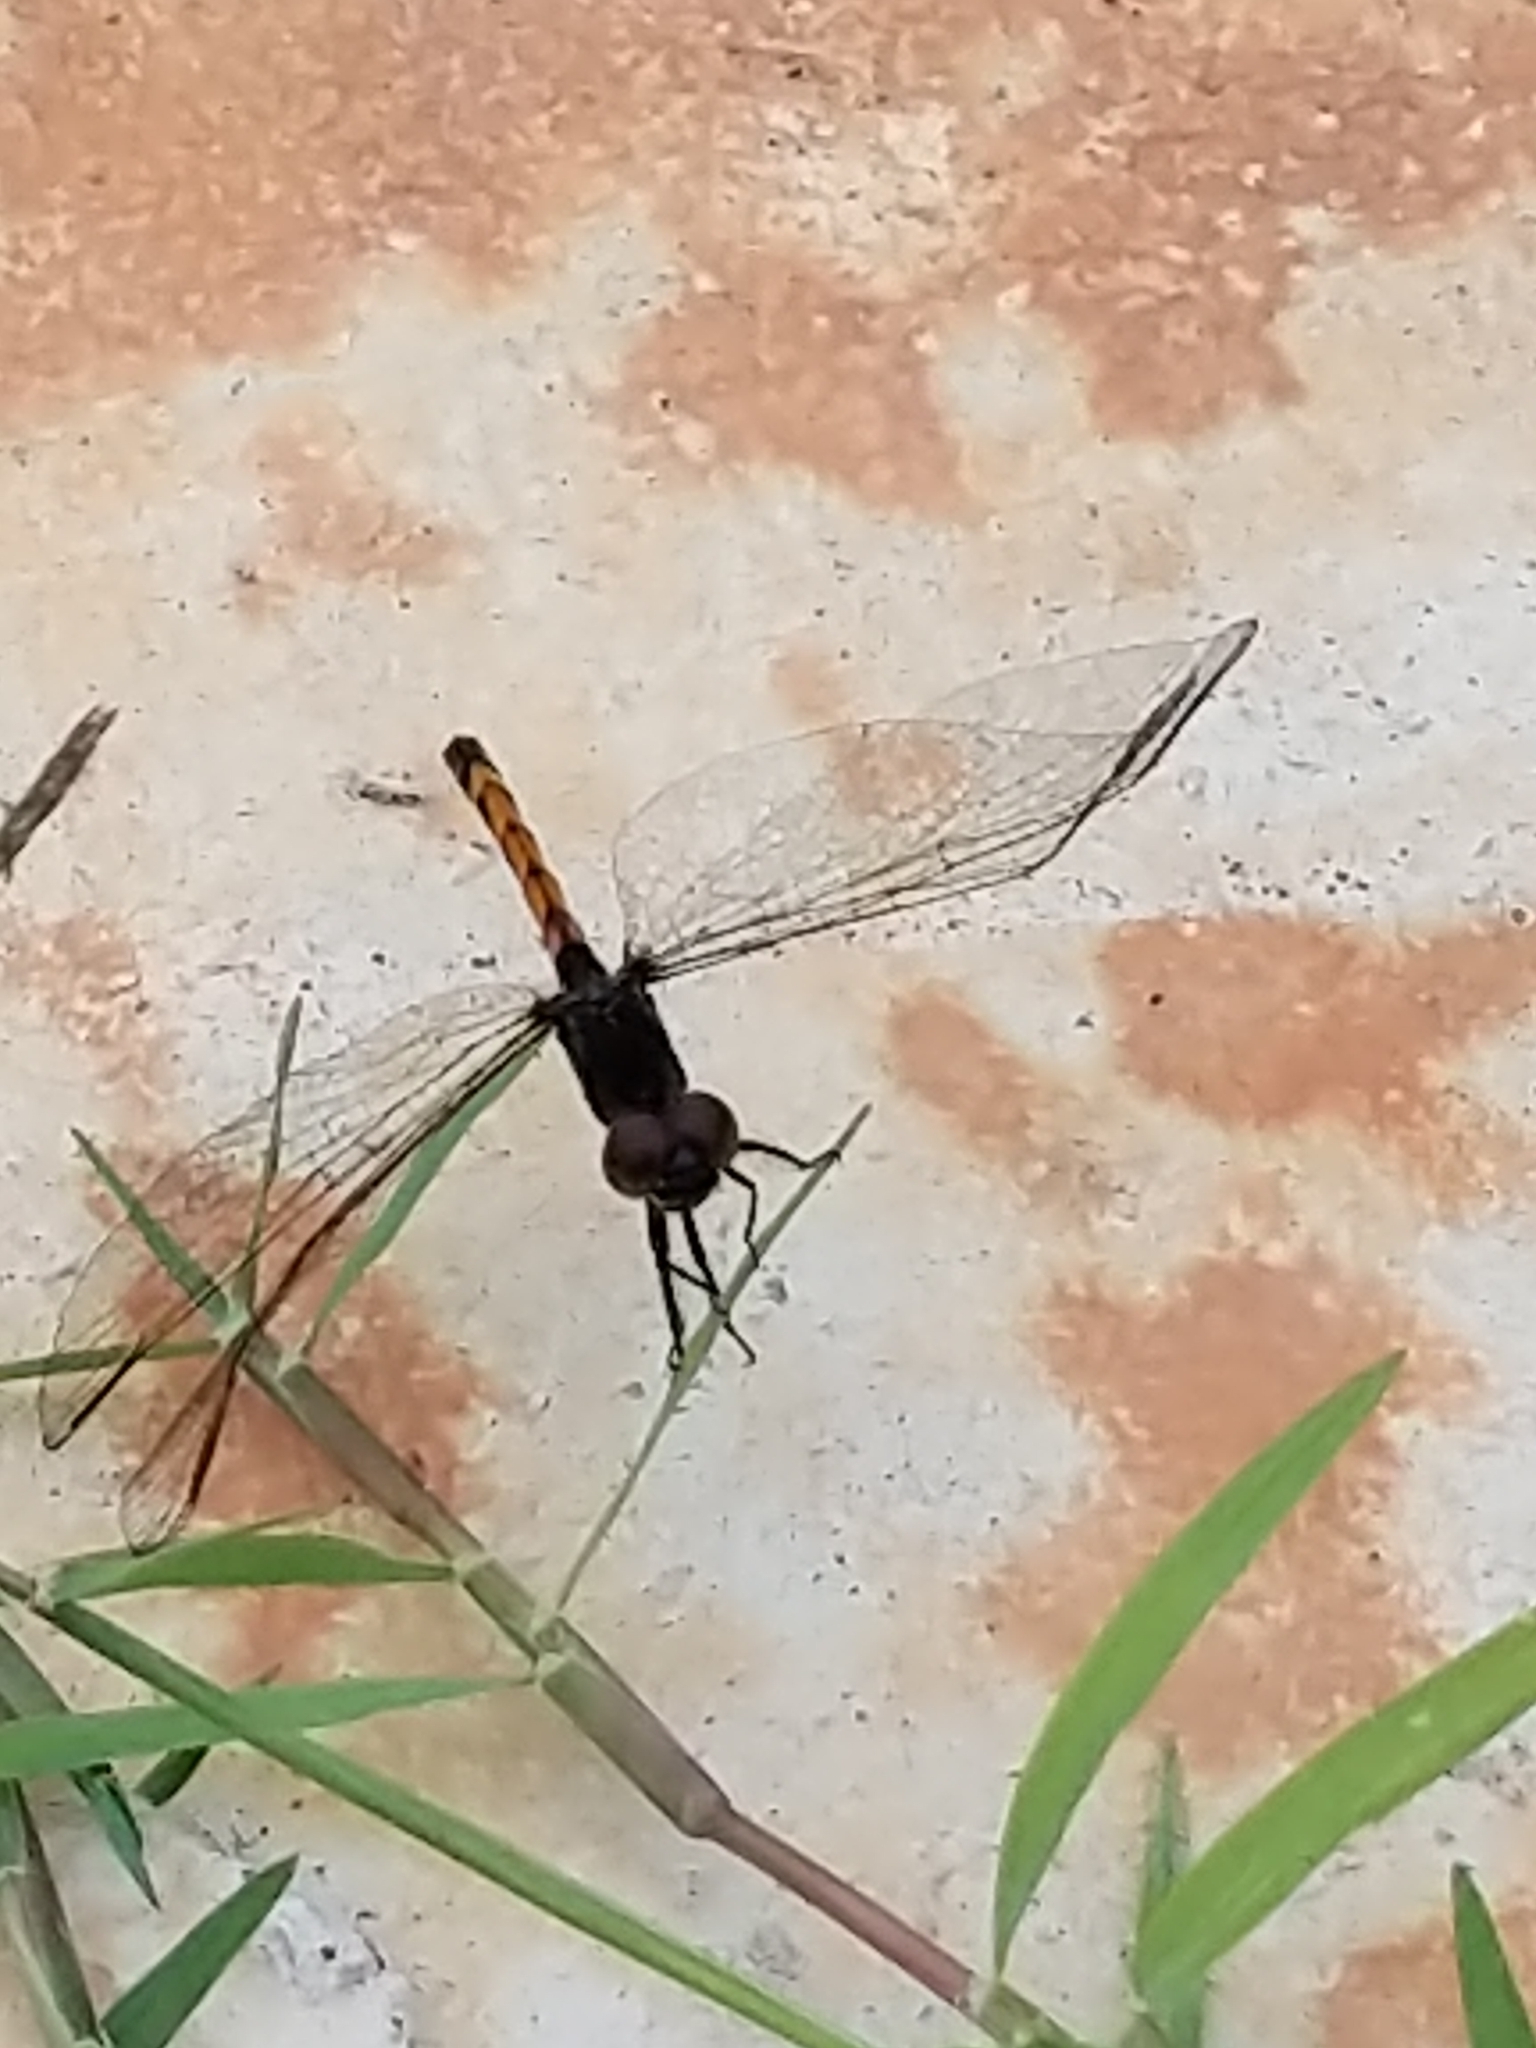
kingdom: Animalia
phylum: Arthropoda
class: Insecta
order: Odonata
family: Libellulidae
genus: Erythrodiplax
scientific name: Erythrodiplax berenice
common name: Seaside dragonlet
